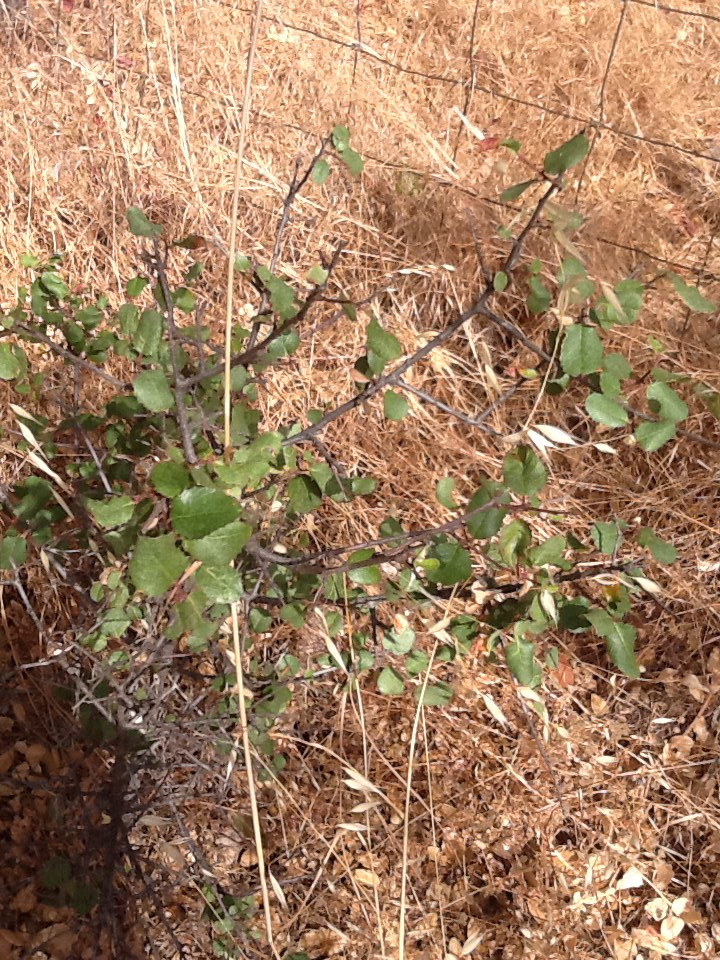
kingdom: Plantae
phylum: Tracheophyta
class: Magnoliopsida
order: Rosales
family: Rhamnaceae
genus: Endotropis
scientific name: Endotropis crocea
